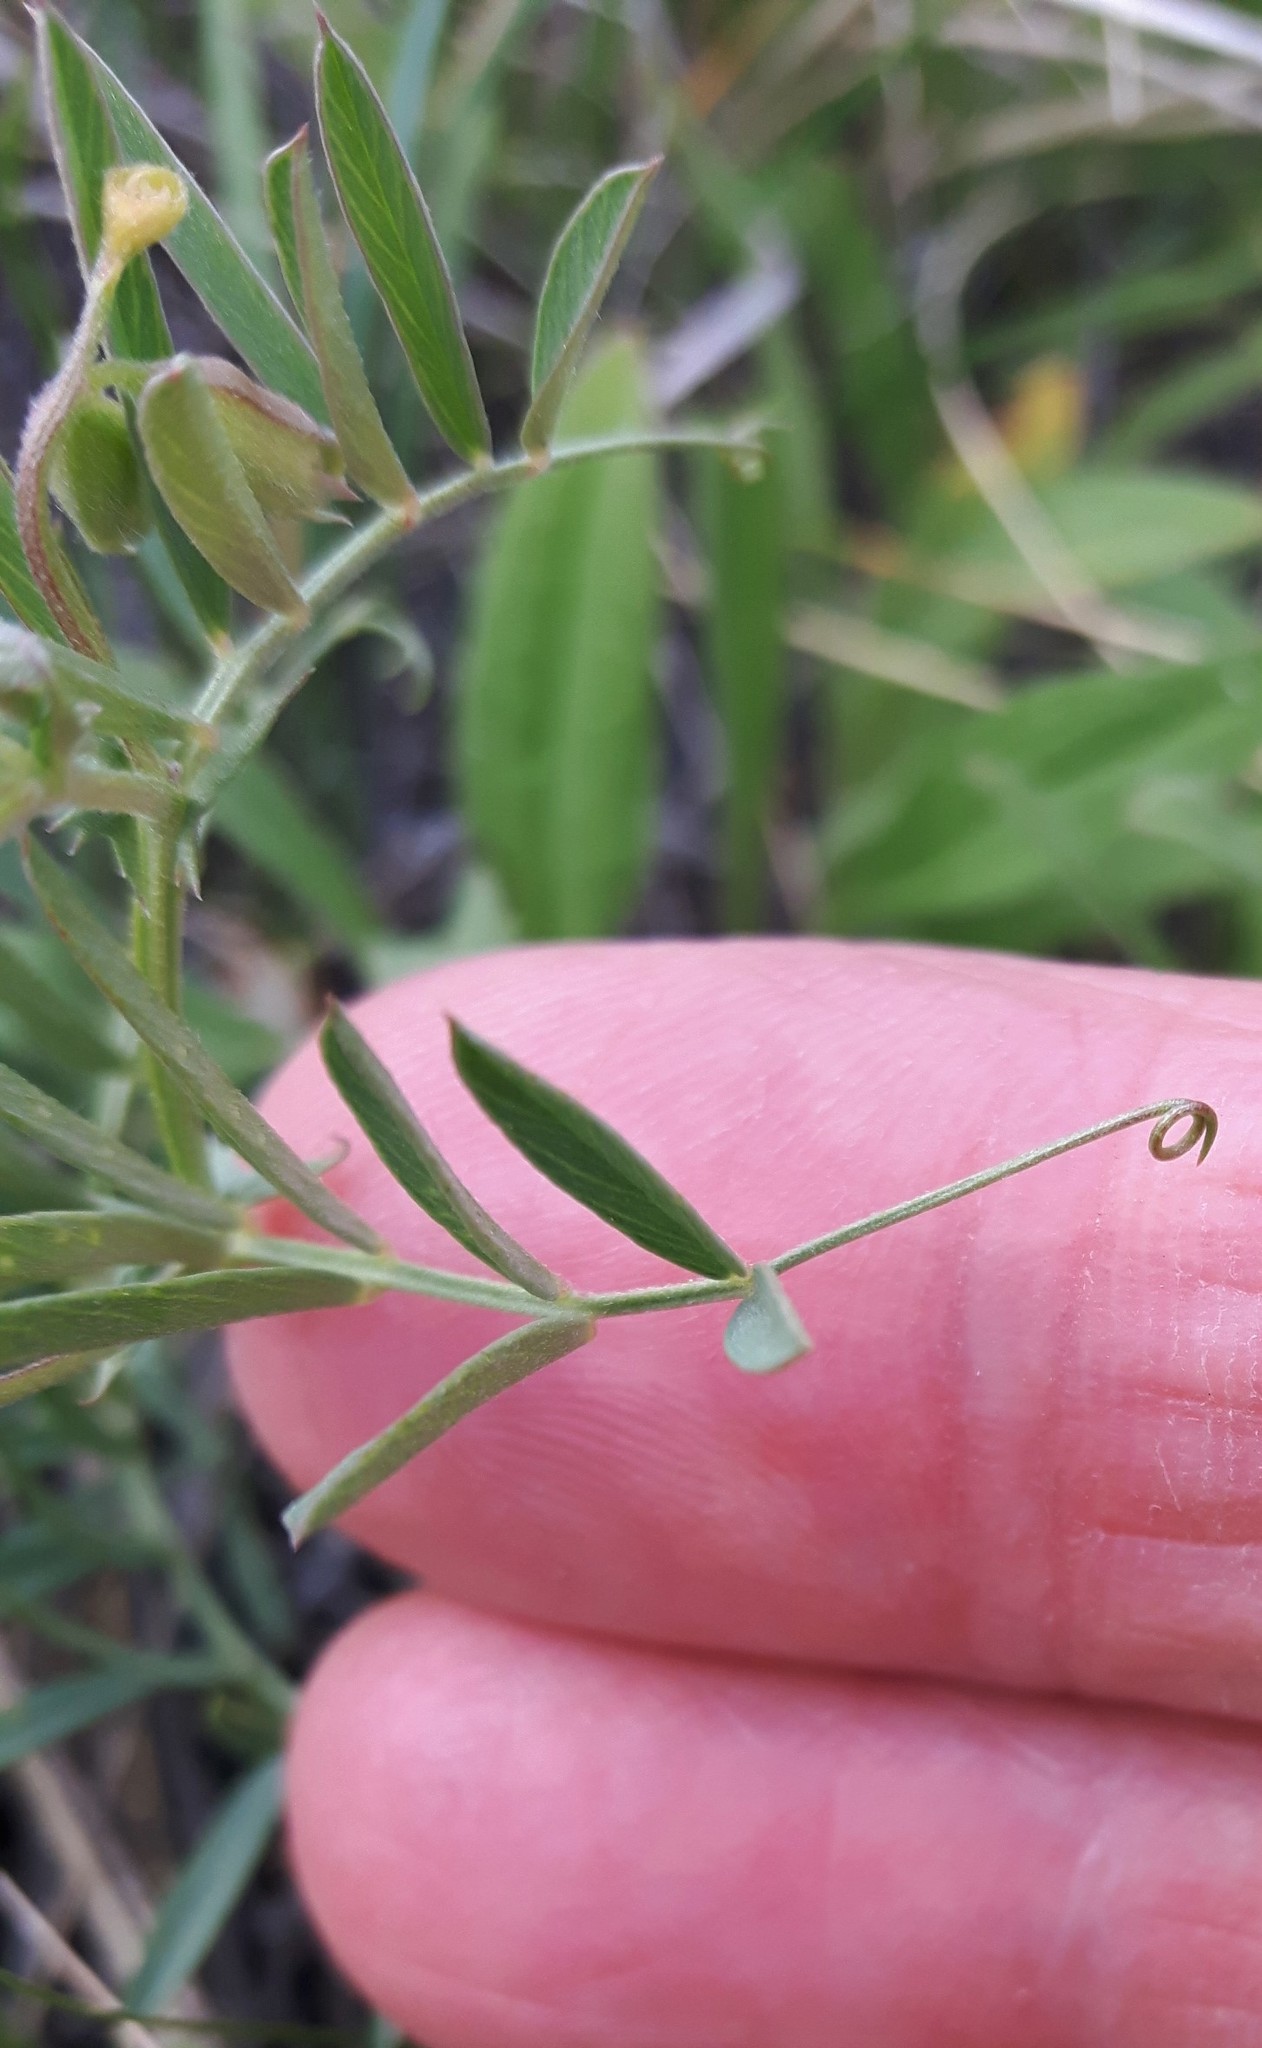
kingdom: Plantae
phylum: Tracheophyta
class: Magnoliopsida
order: Fabales
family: Fabaceae
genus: Vicia
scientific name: Vicia americana
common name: American vetch
